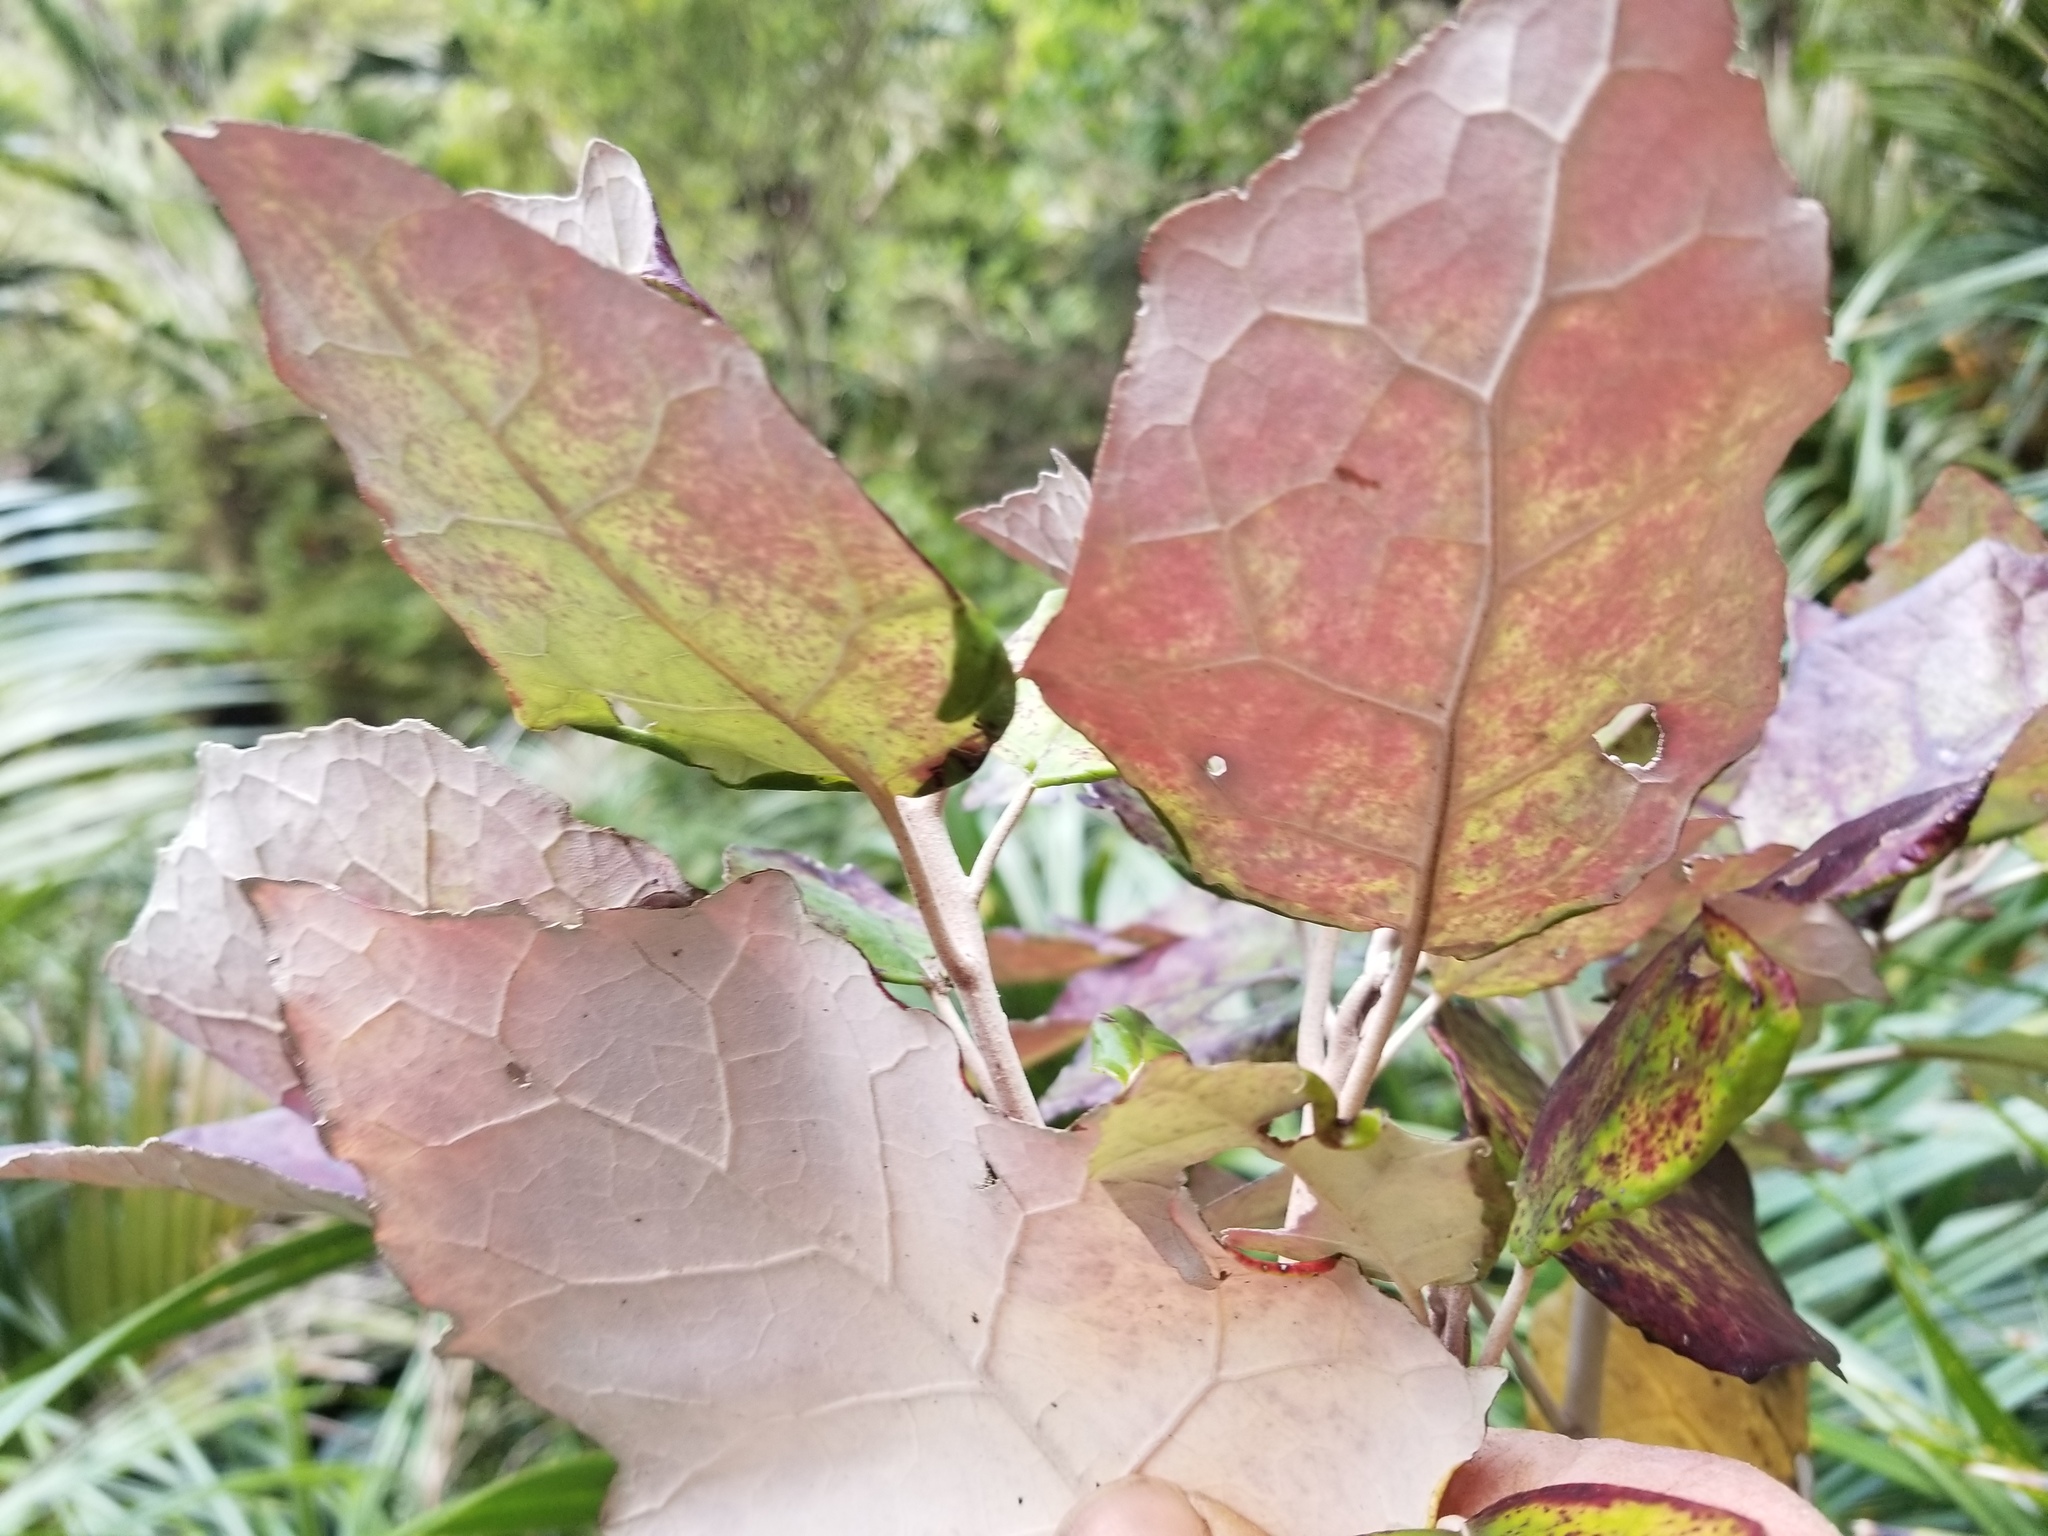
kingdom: Plantae
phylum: Tracheophyta
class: Magnoliopsida
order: Asterales
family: Asteraceae
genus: Brachyglottis
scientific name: Brachyglottis repanda
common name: Hedge ragwort
